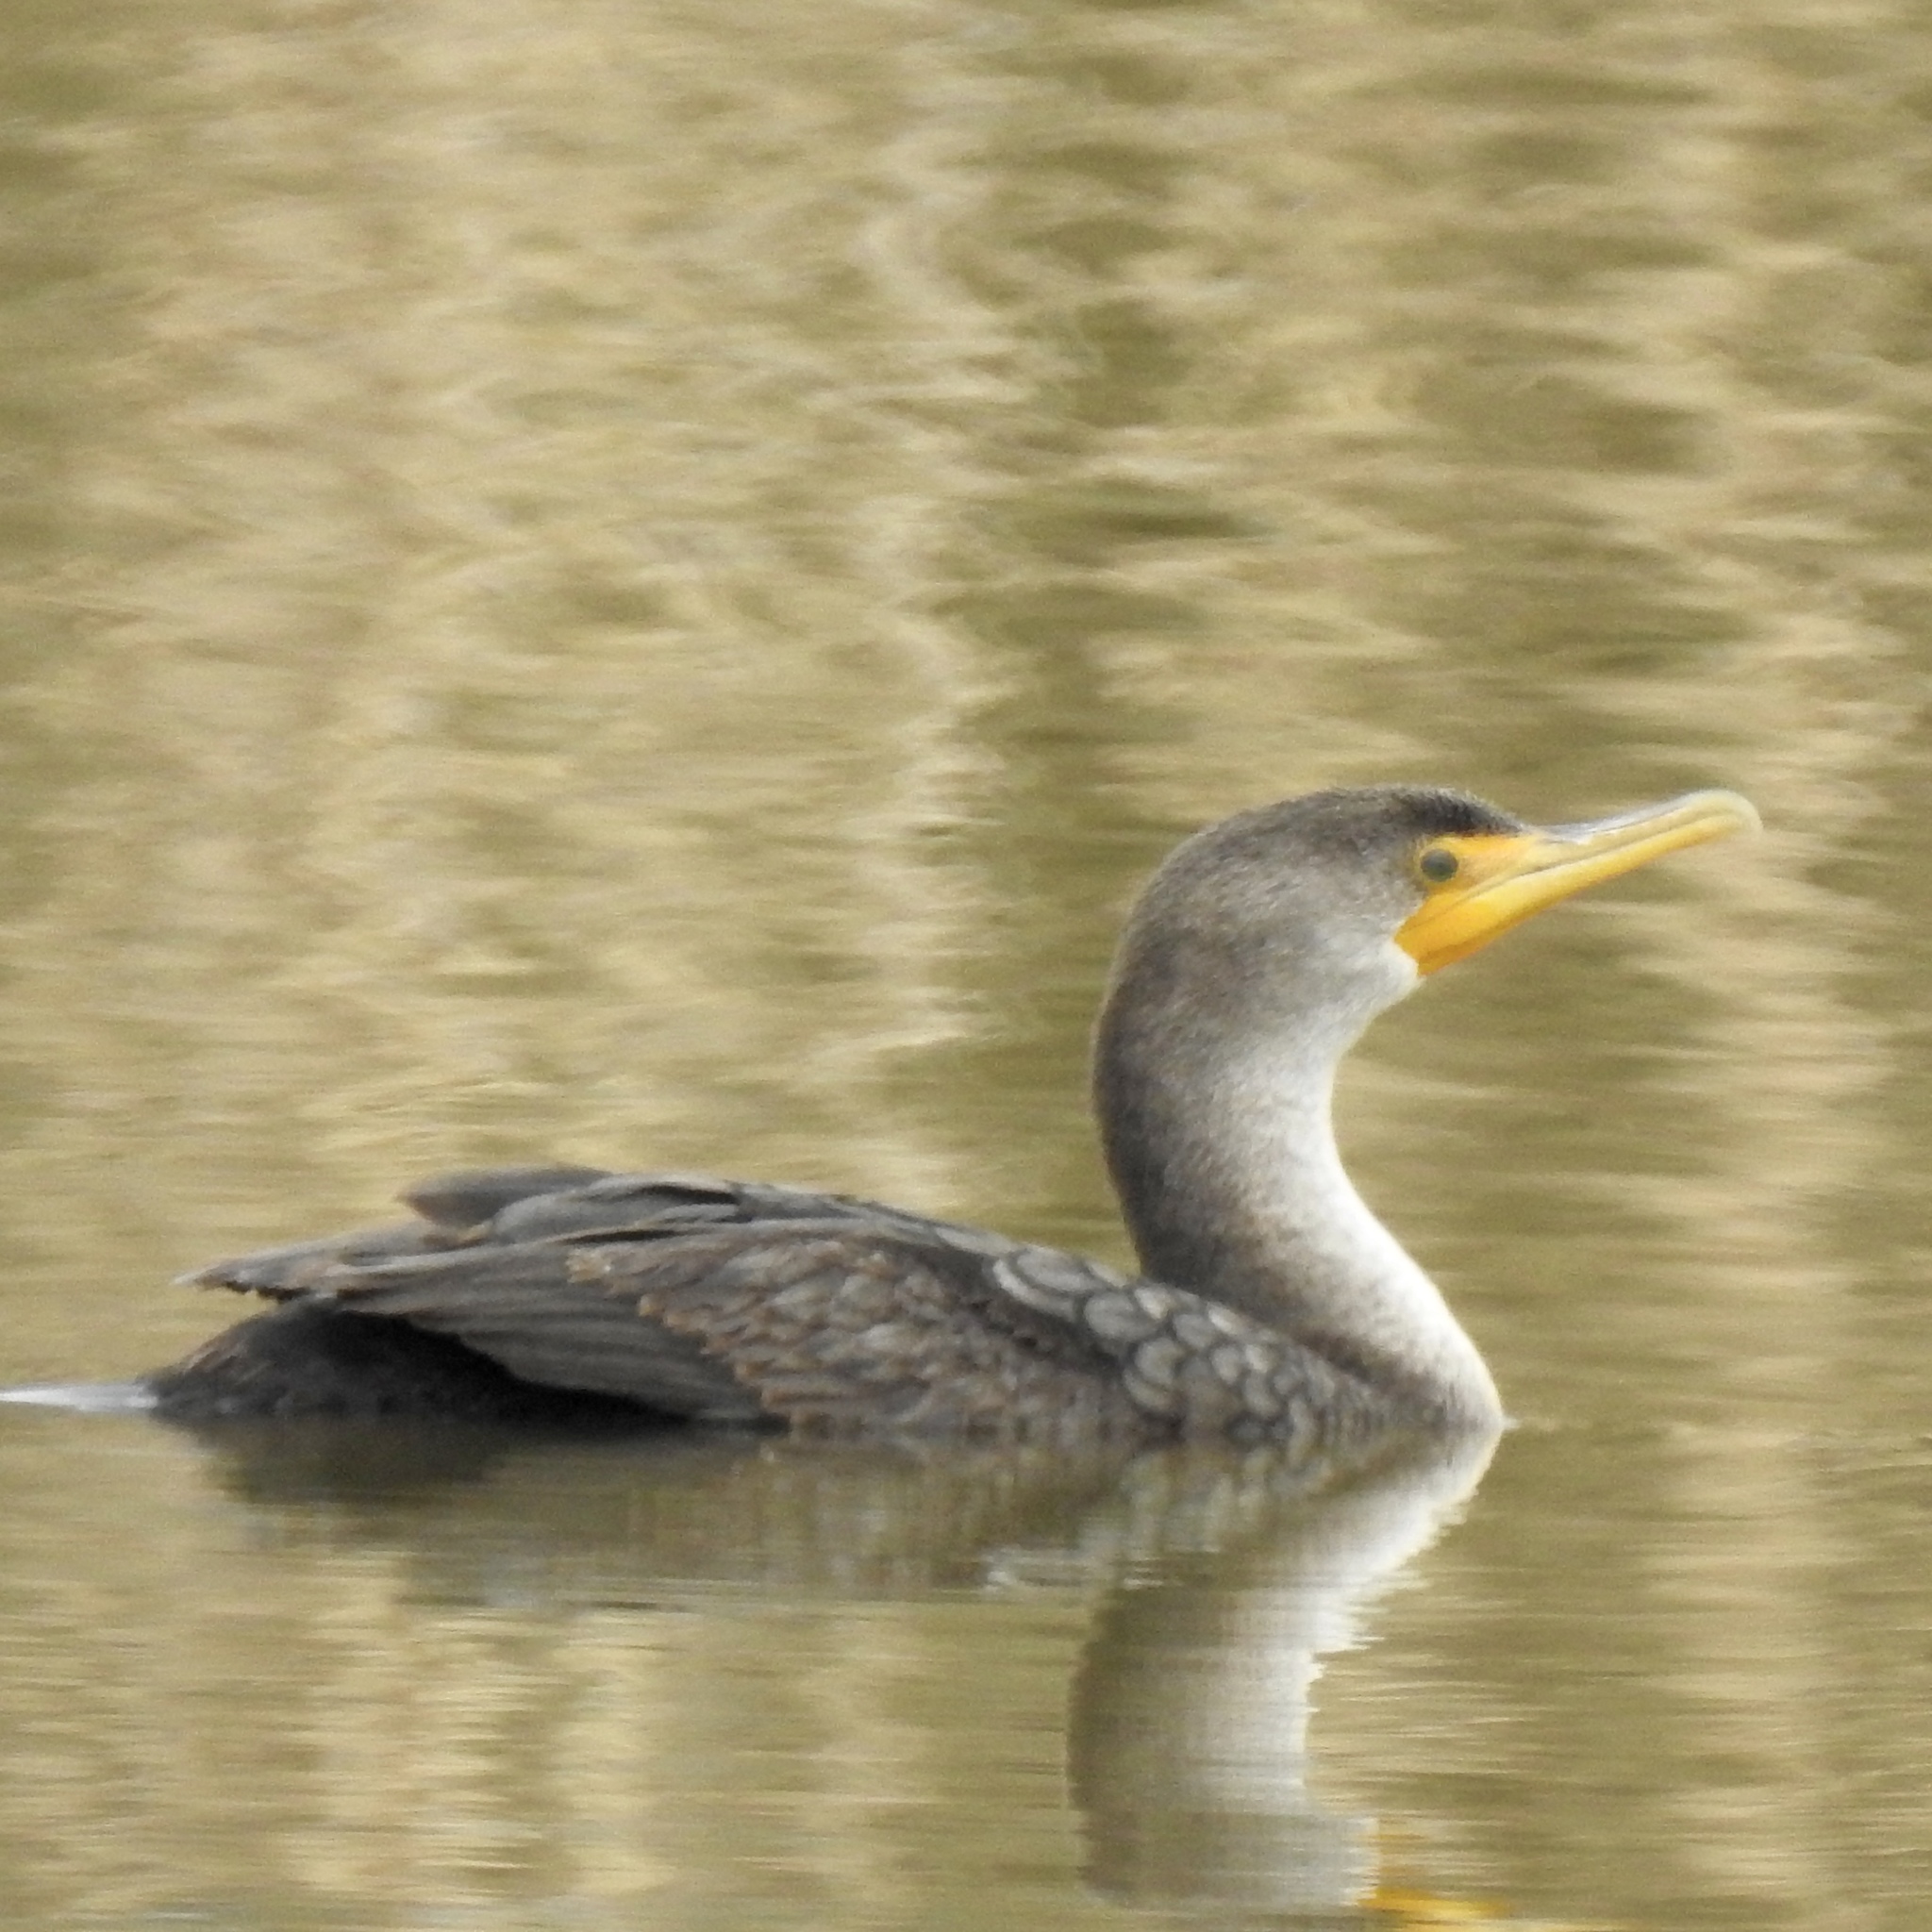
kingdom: Animalia
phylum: Chordata
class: Aves
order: Suliformes
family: Phalacrocoracidae
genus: Phalacrocorax
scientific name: Phalacrocorax auritus
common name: Double-crested cormorant
